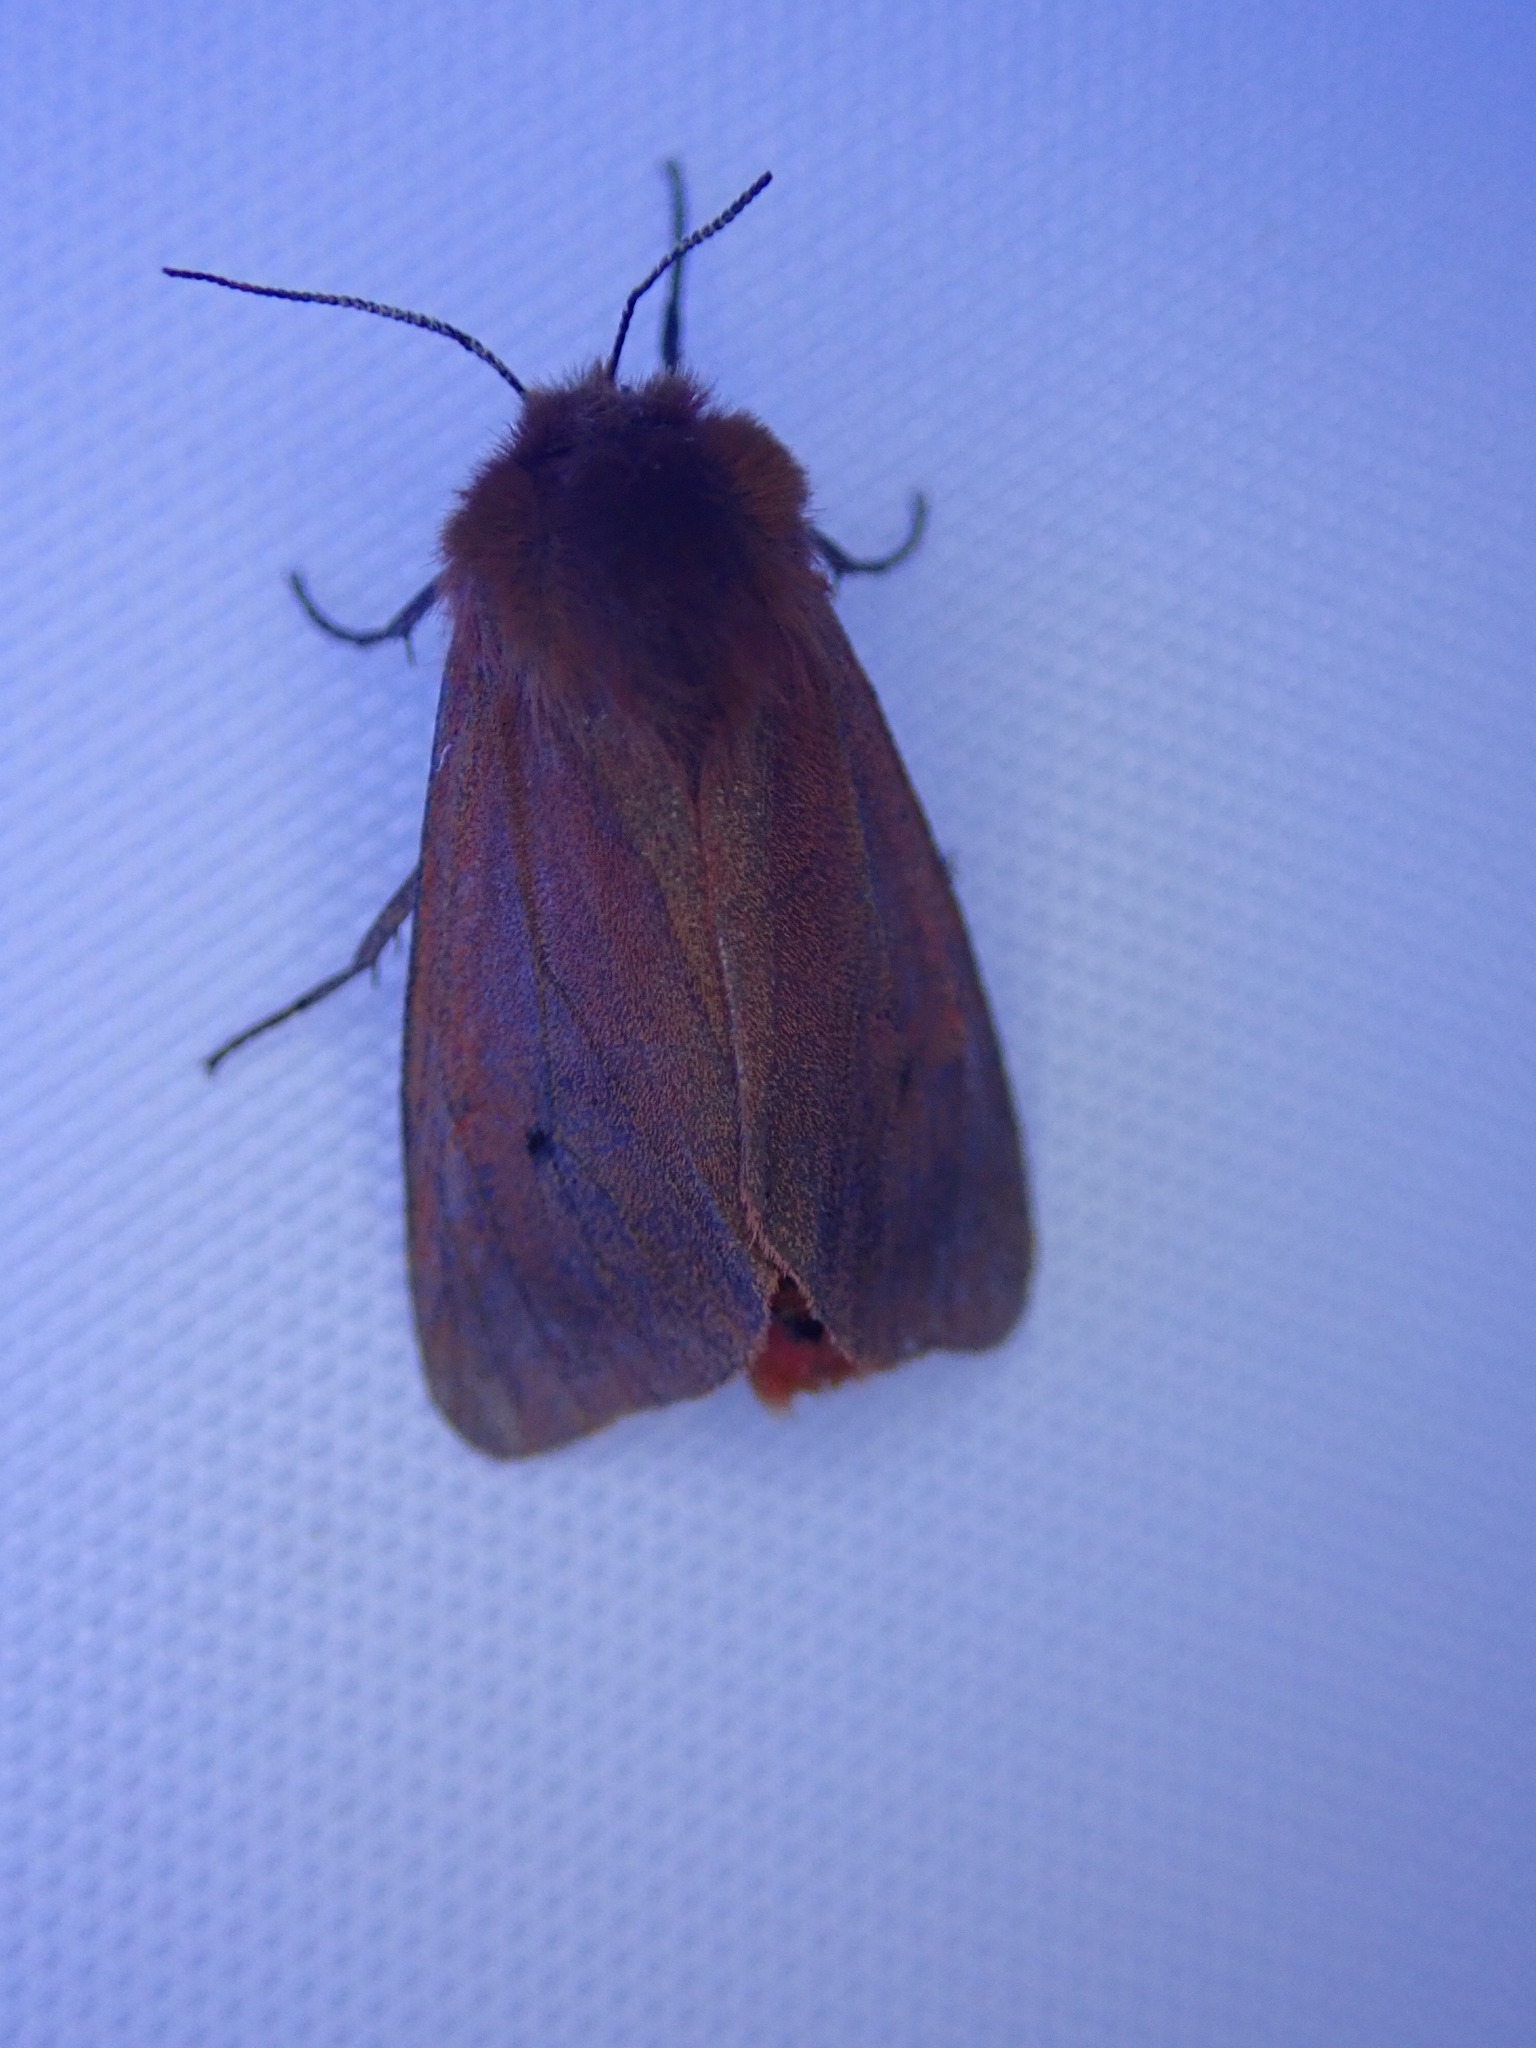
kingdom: Animalia
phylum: Arthropoda
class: Insecta
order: Lepidoptera
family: Erebidae
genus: Phragmatobia
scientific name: Phragmatobia fuliginosa
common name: Ruby tiger
